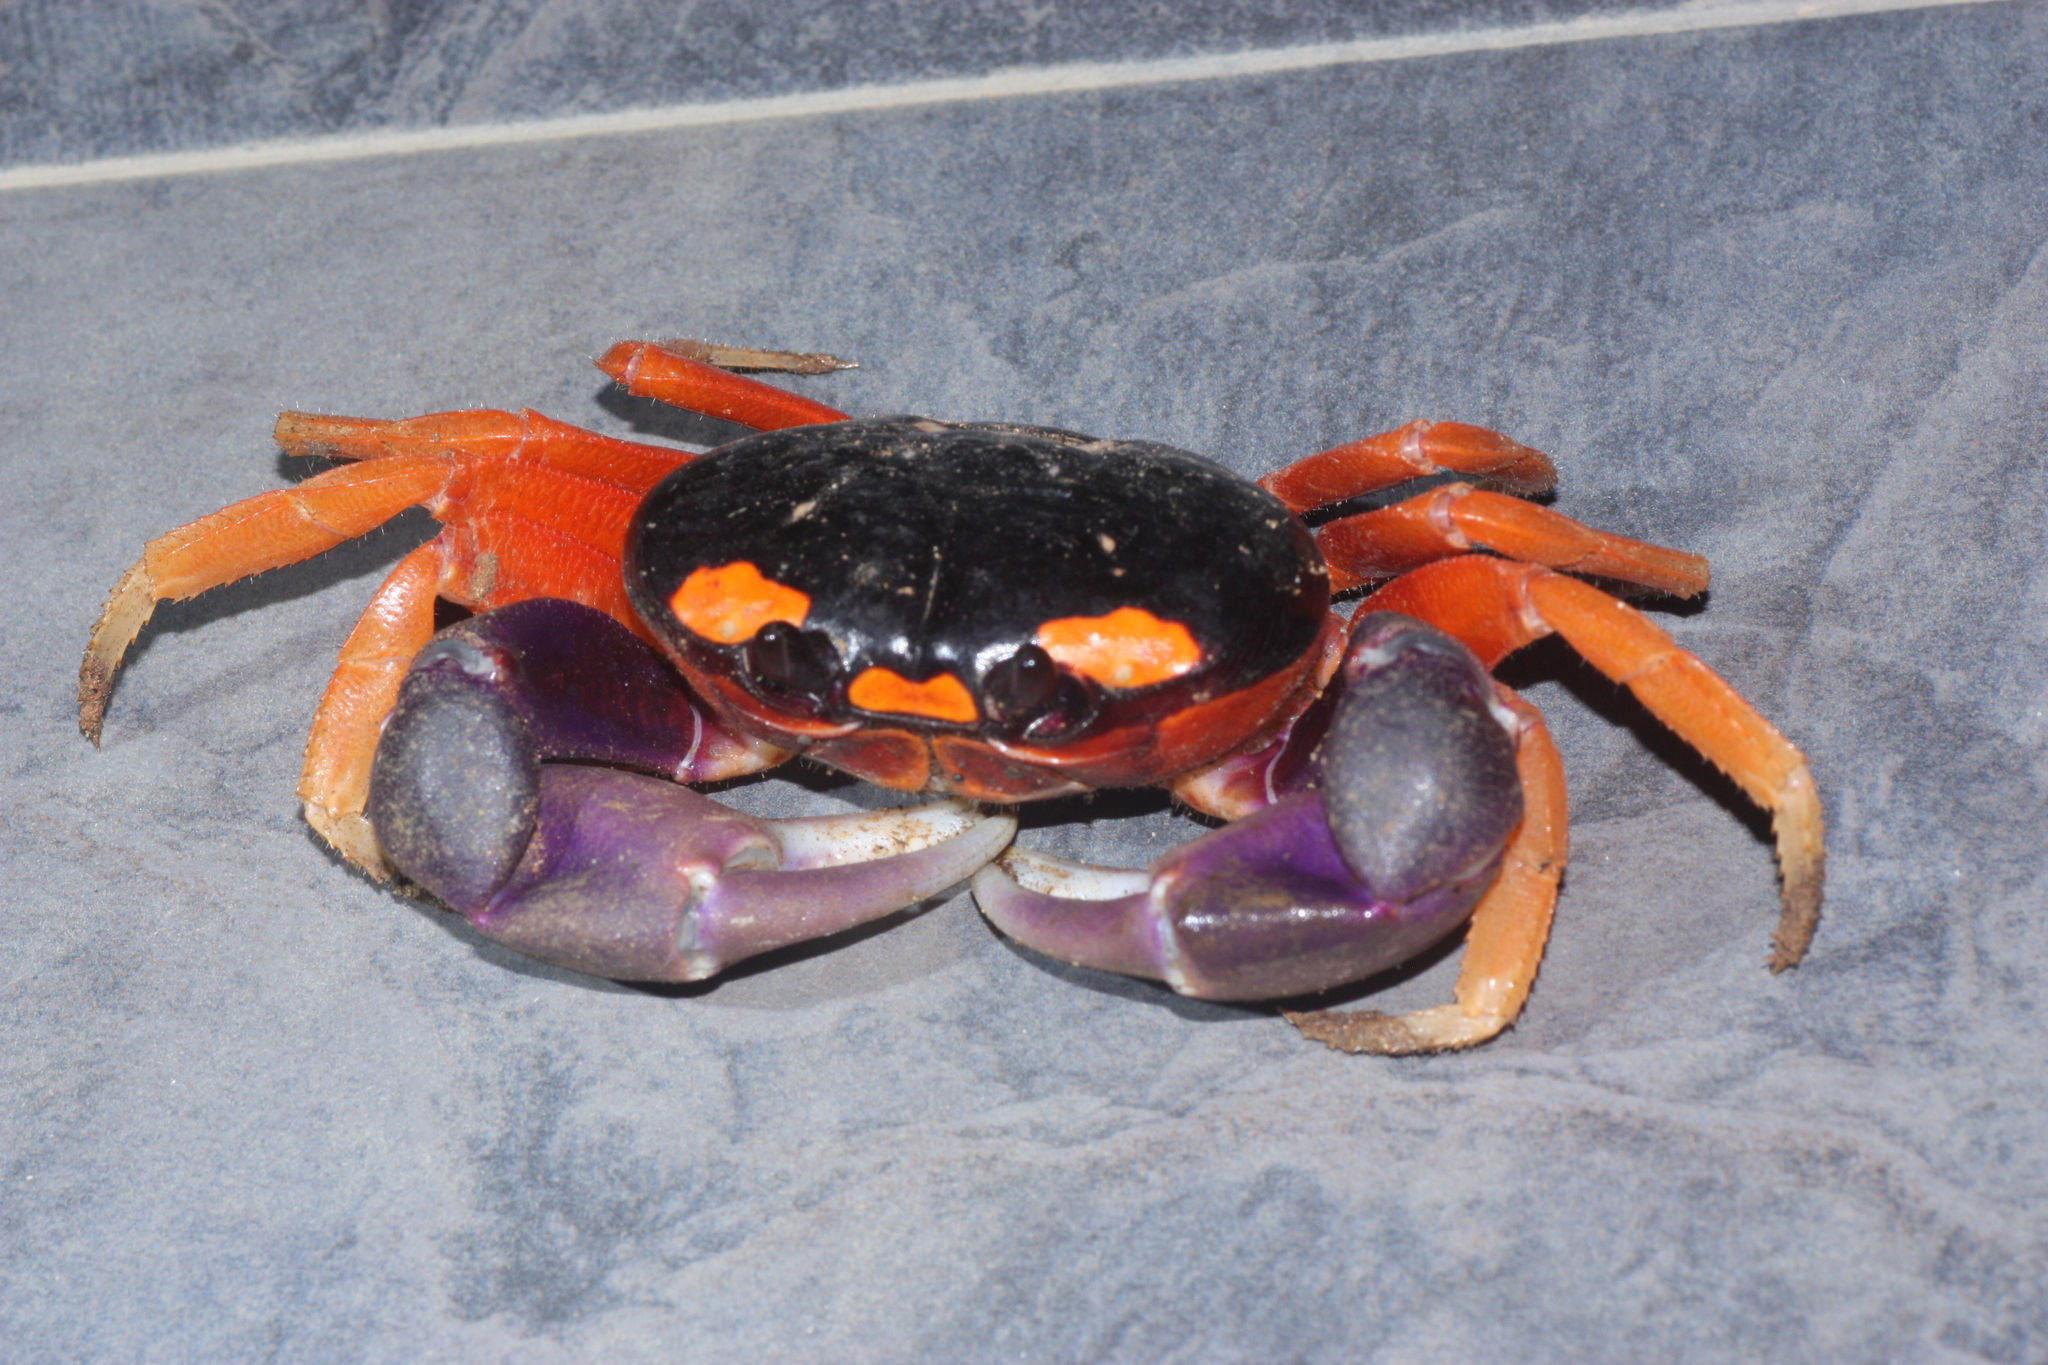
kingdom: Animalia
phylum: Arthropoda
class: Malacostraca
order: Decapoda
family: Gecarcinidae
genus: Gecarcinus
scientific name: Gecarcinus quadratus
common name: Halloween crab
